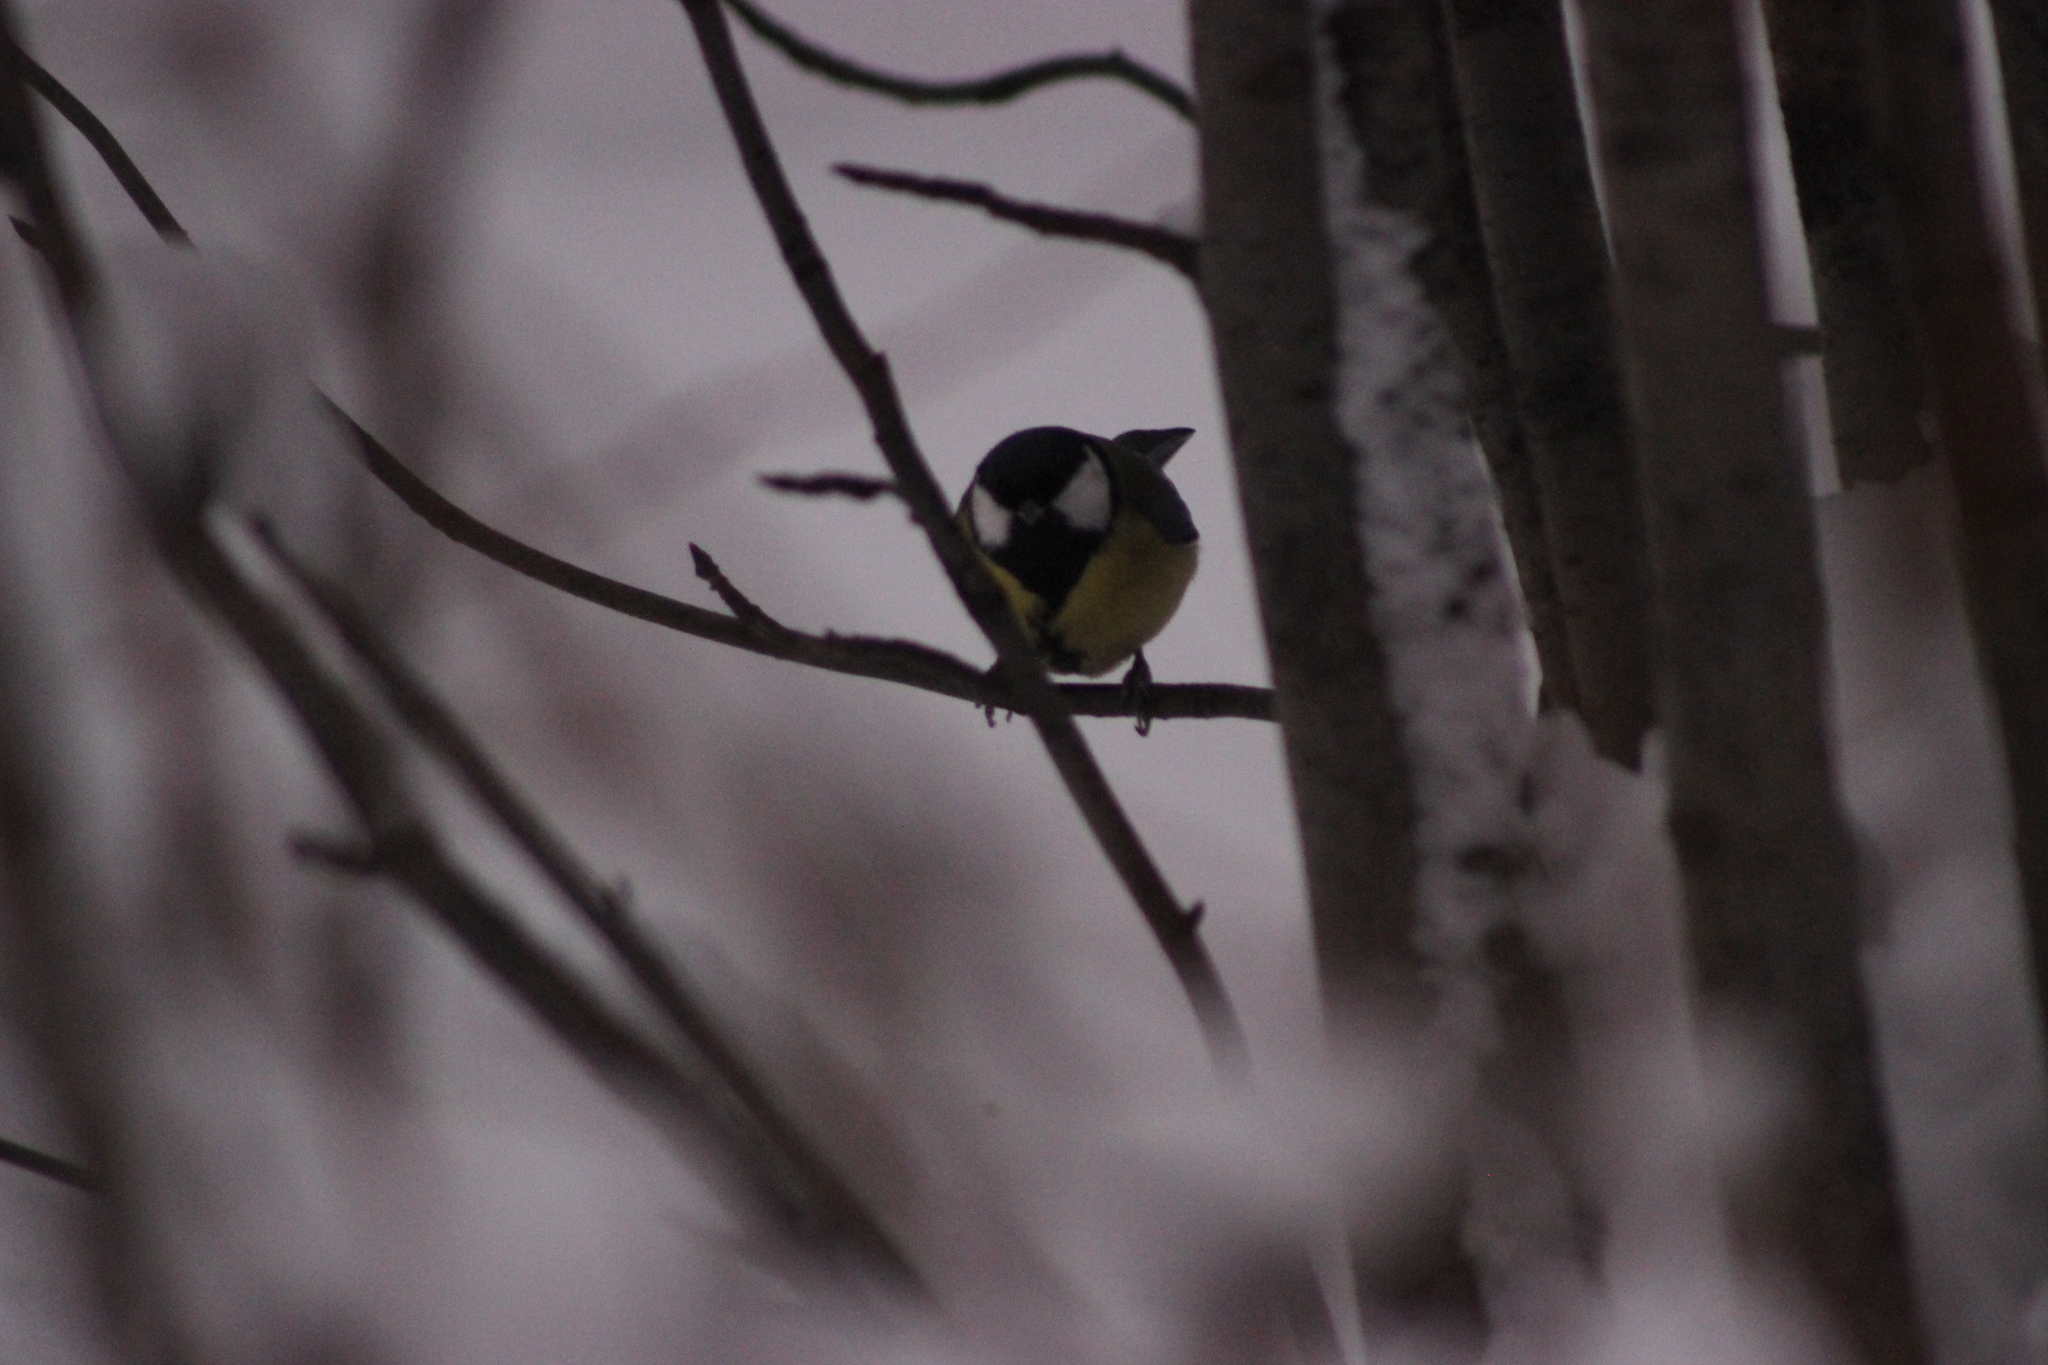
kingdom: Animalia
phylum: Chordata
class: Aves
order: Passeriformes
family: Paridae
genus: Parus
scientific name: Parus major
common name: Great tit
